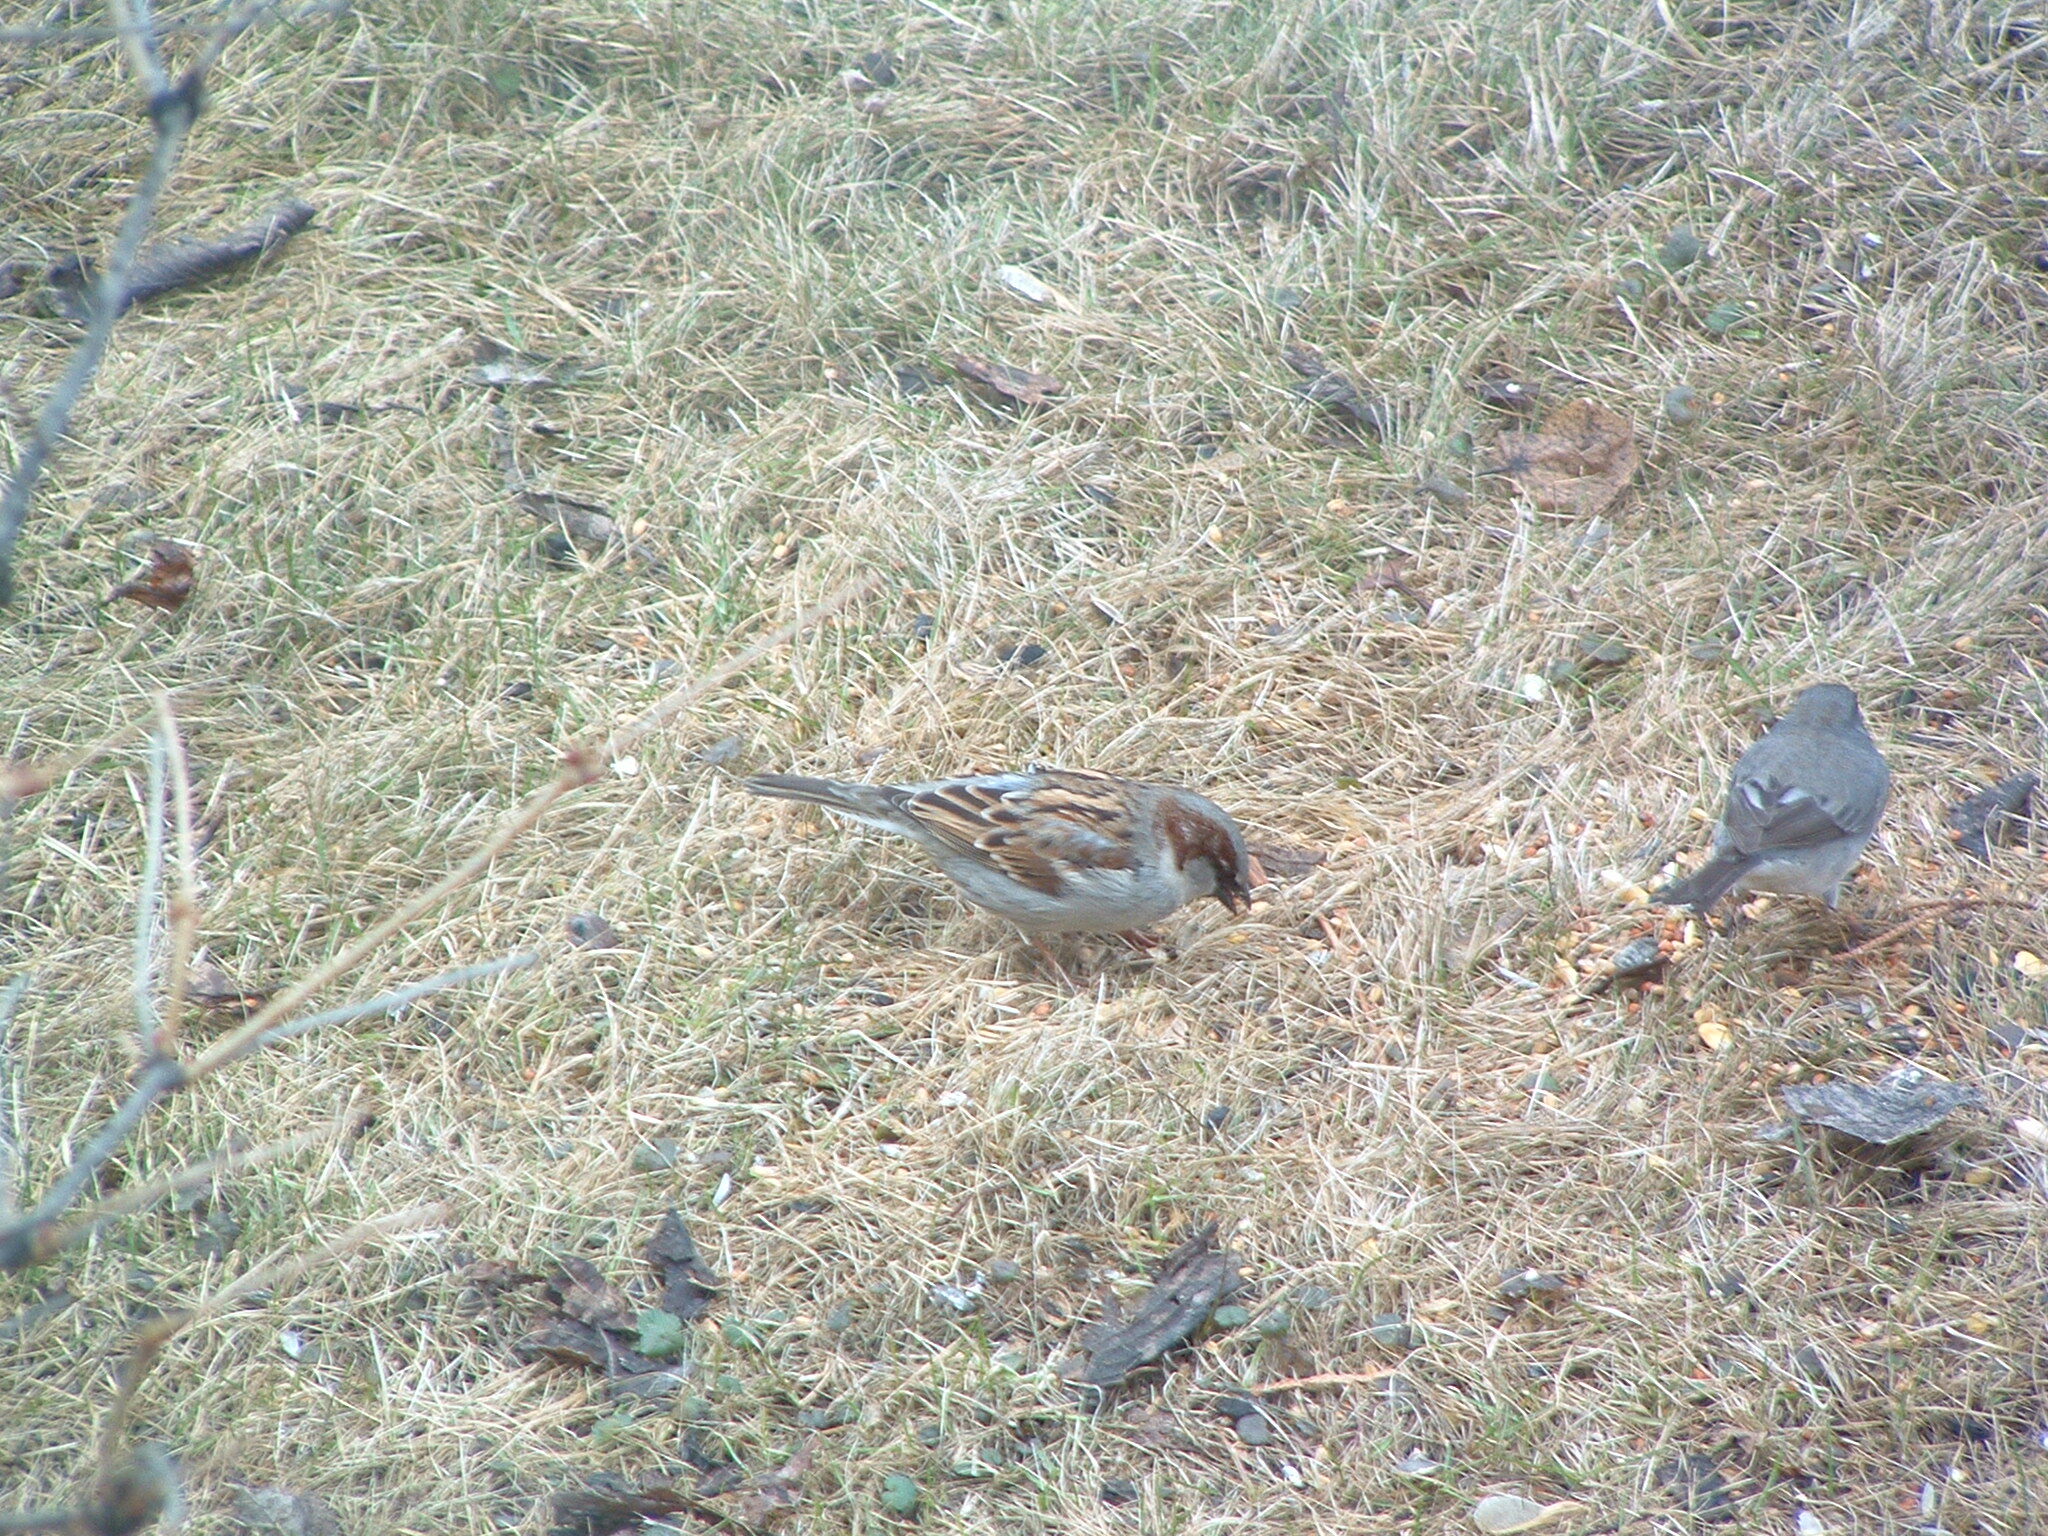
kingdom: Animalia
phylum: Chordata
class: Aves
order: Passeriformes
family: Passeridae
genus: Passer
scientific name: Passer domesticus
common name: House sparrow
